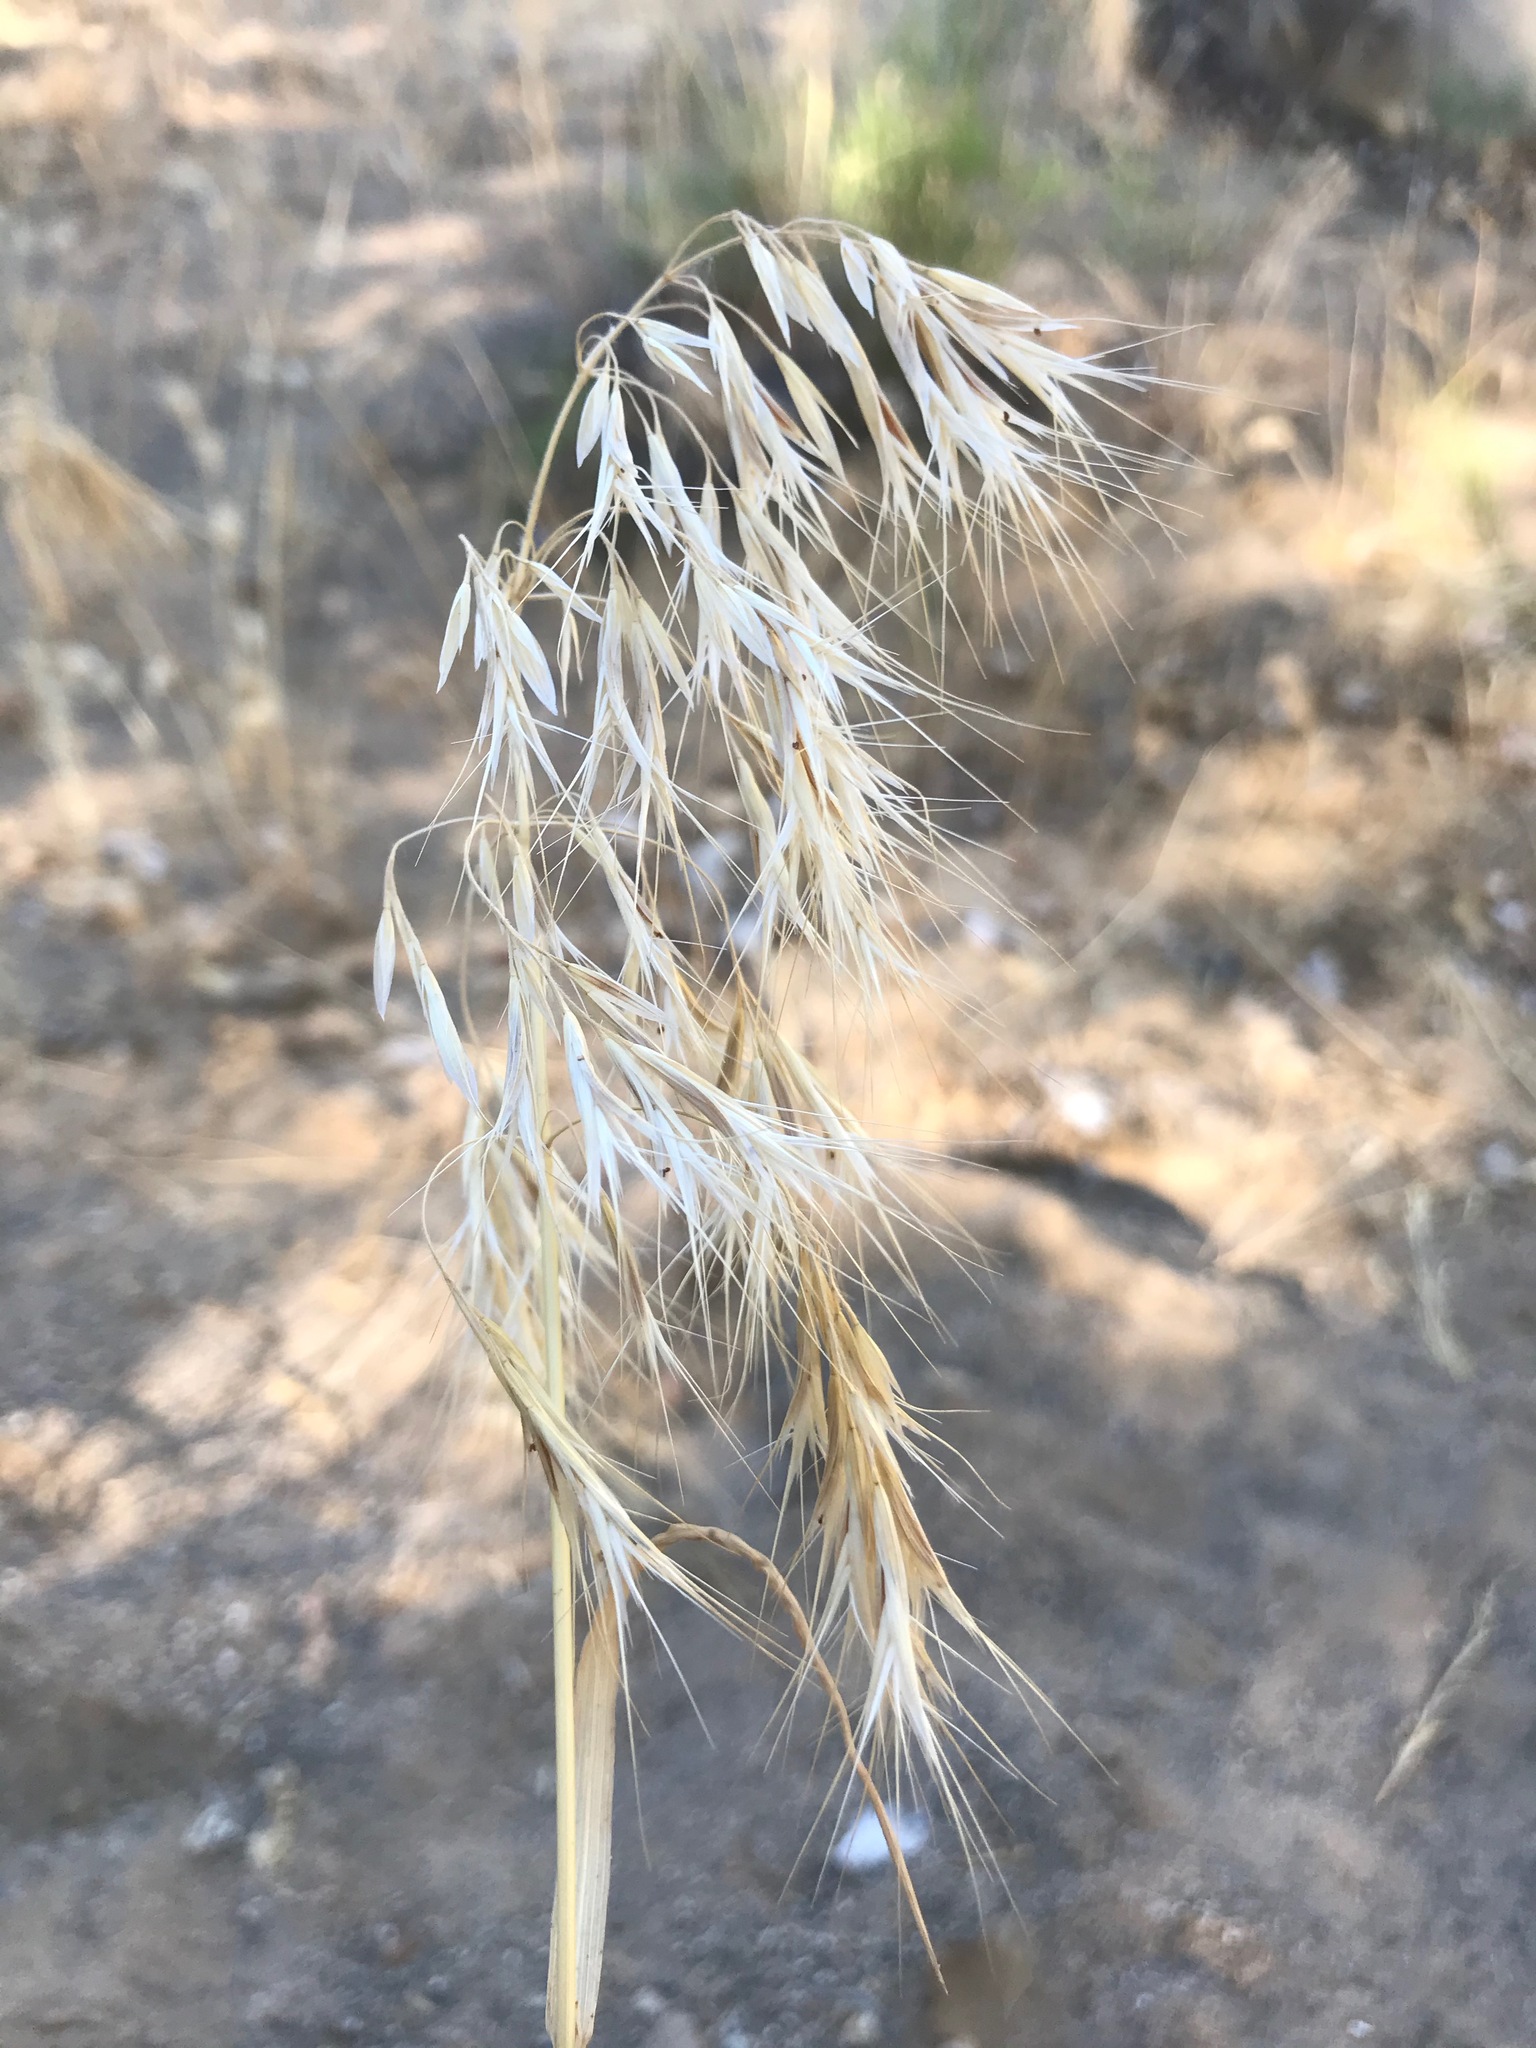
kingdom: Plantae
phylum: Tracheophyta
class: Liliopsida
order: Poales
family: Poaceae
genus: Bromus
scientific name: Bromus tectorum
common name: Cheatgrass
